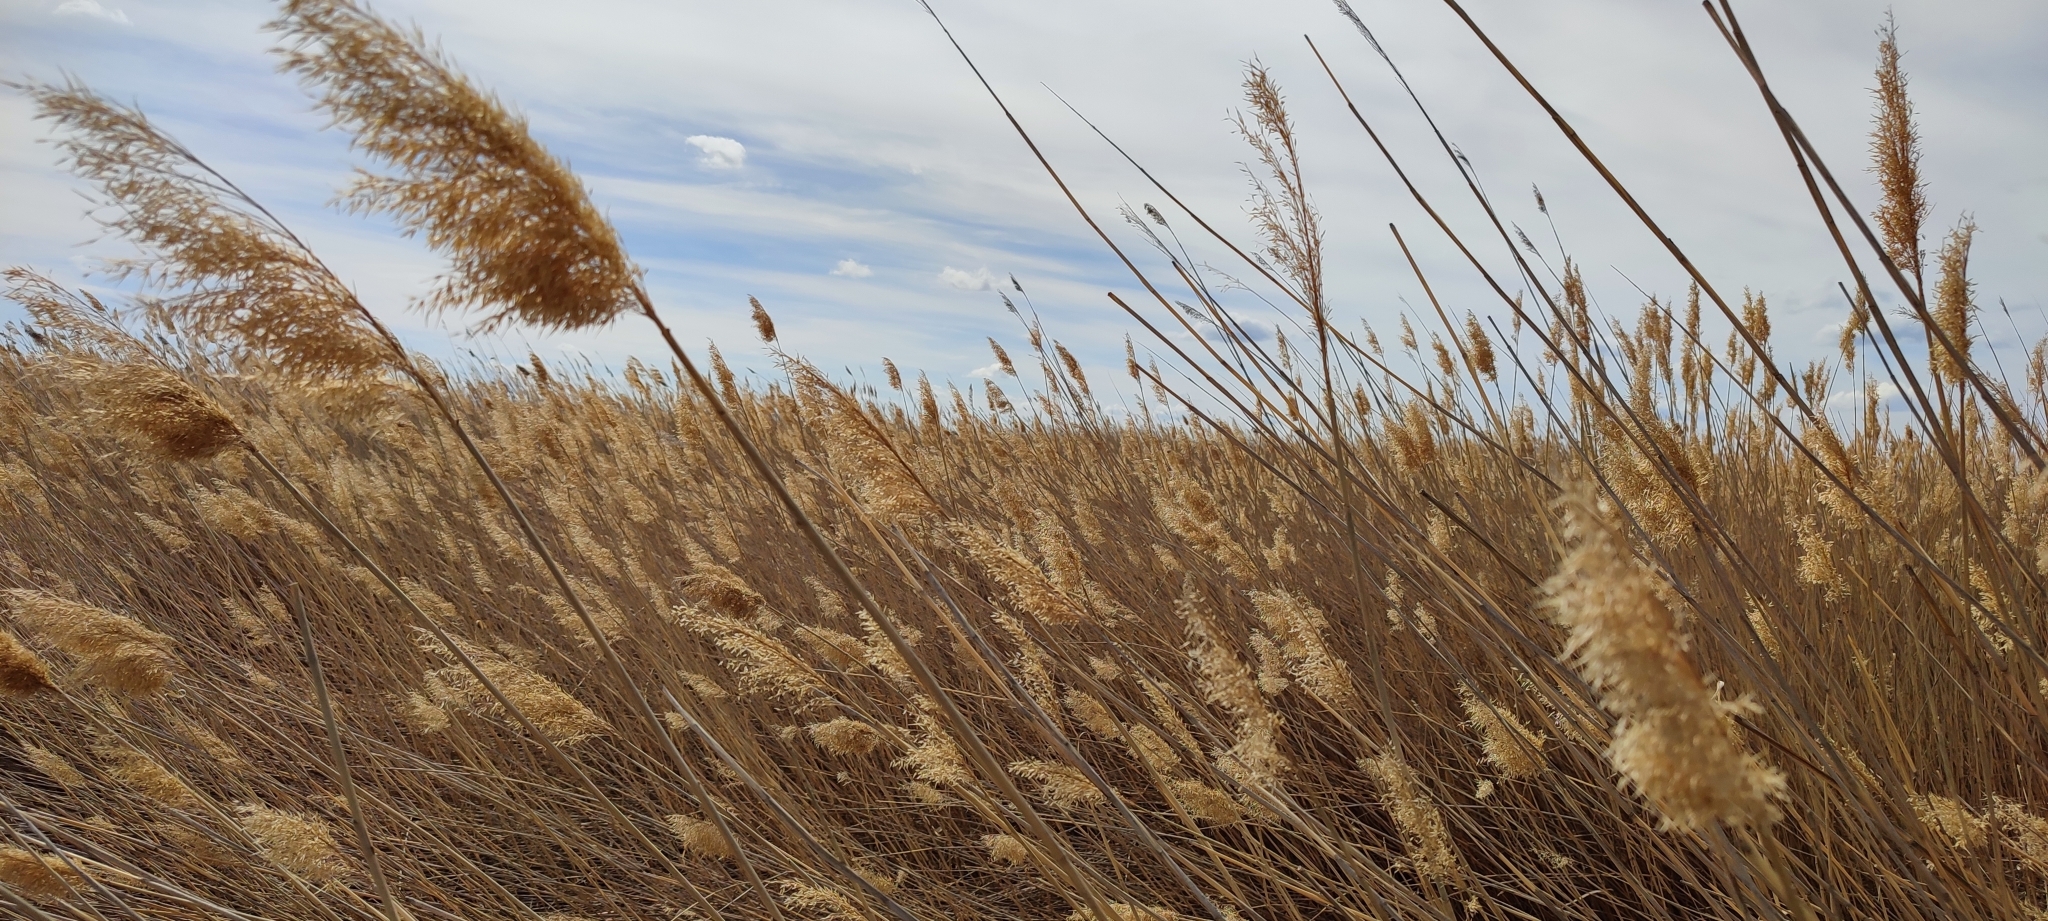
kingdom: Plantae
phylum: Tracheophyta
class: Liliopsida
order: Poales
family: Poaceae
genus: Phragmites
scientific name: Phragmites australis
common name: Common reed
